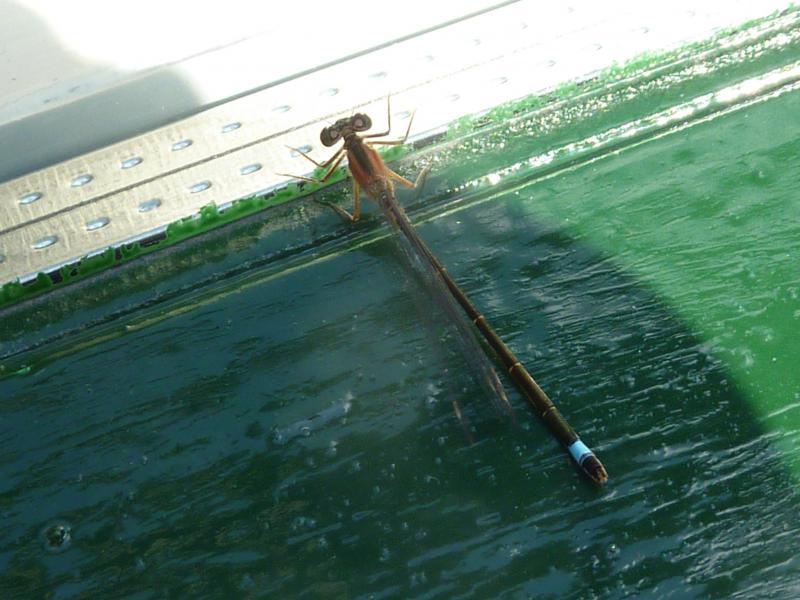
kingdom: Animalia
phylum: Arthropoda
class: Insecta
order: Odonata
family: Coenagrionidae
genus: Ischnura
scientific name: Ischnura elegans
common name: Blue-tailed damselfly
